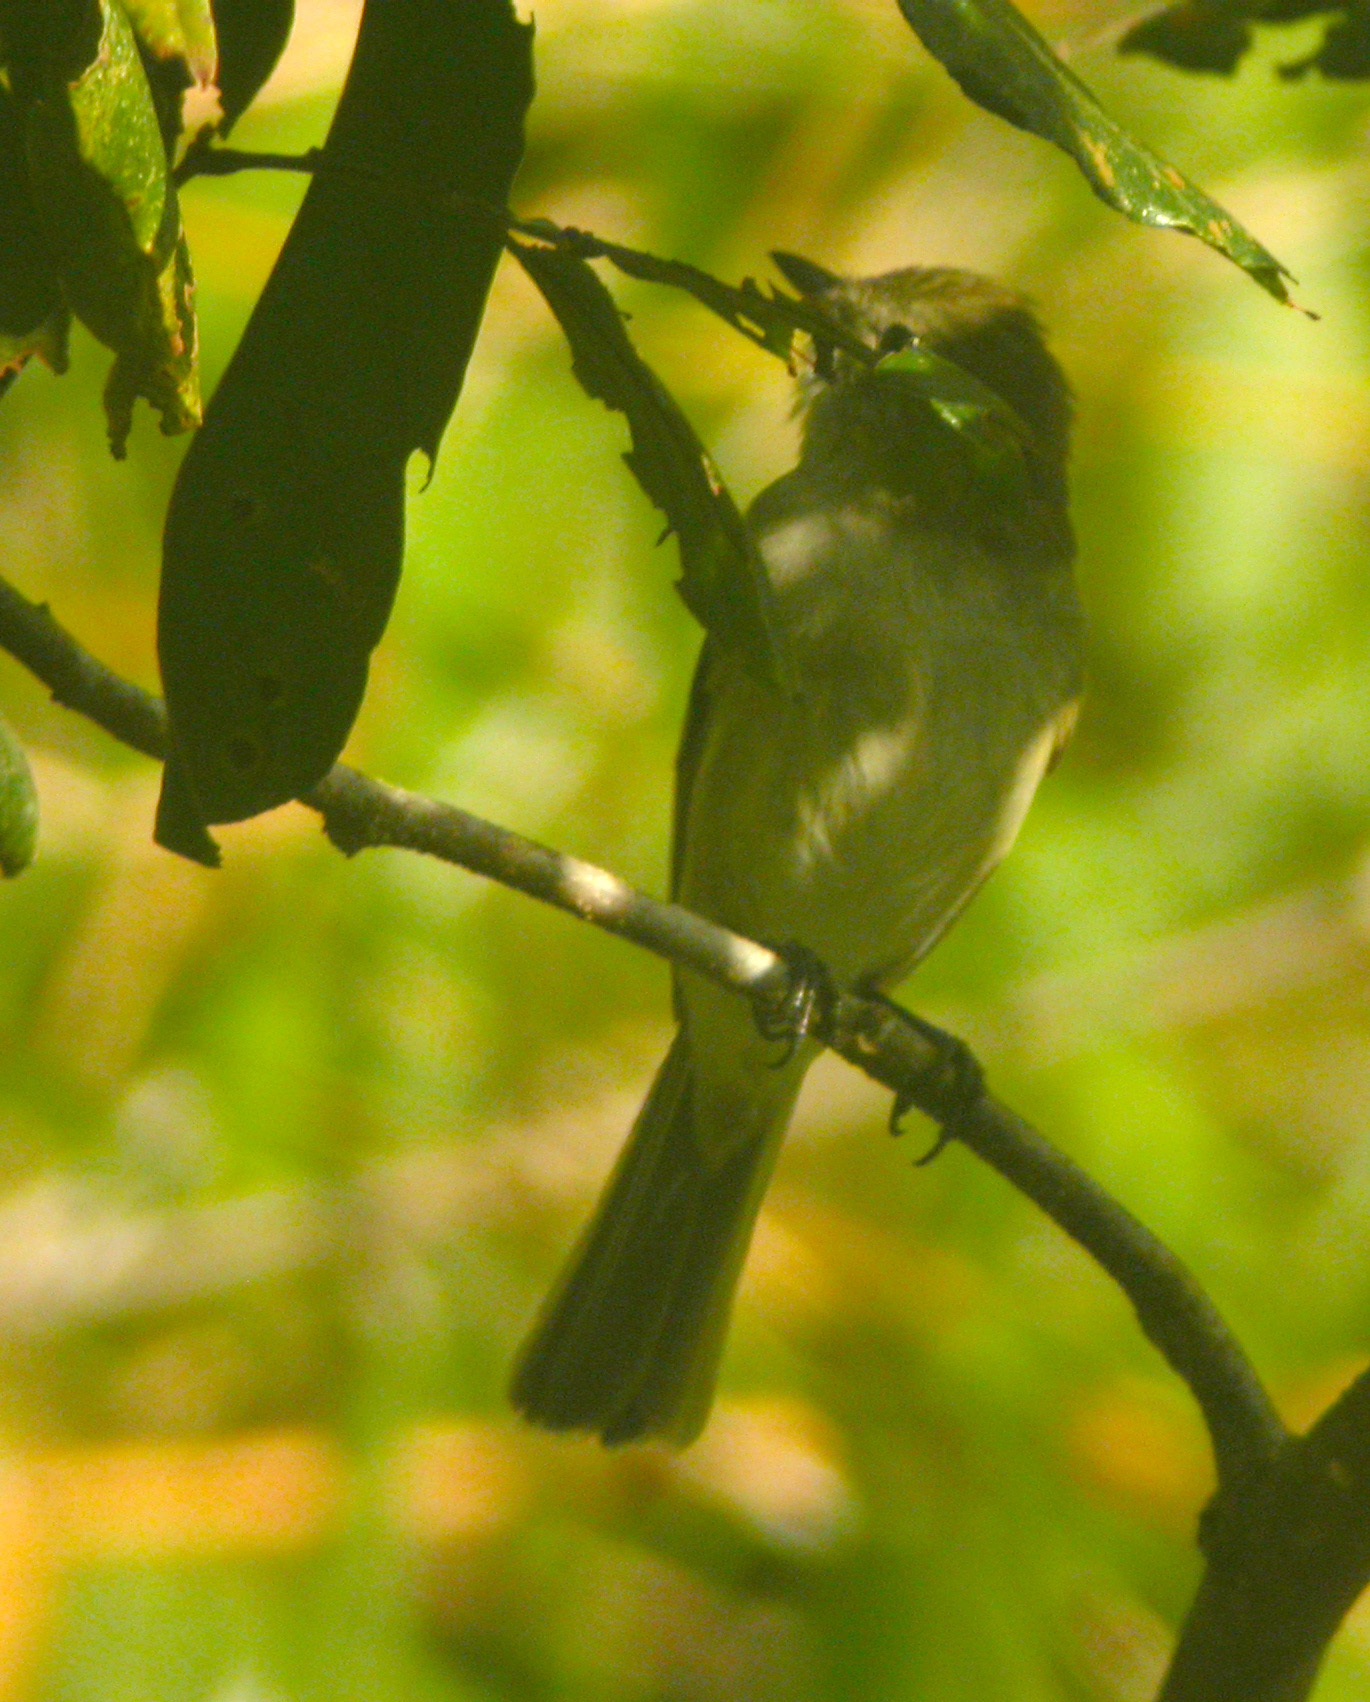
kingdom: Animalia
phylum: Chordata
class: Aves
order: Passeriformes
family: Tyrannidae
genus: Elaenia
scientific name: Elaenia martinica
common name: Caribbean elaenia
